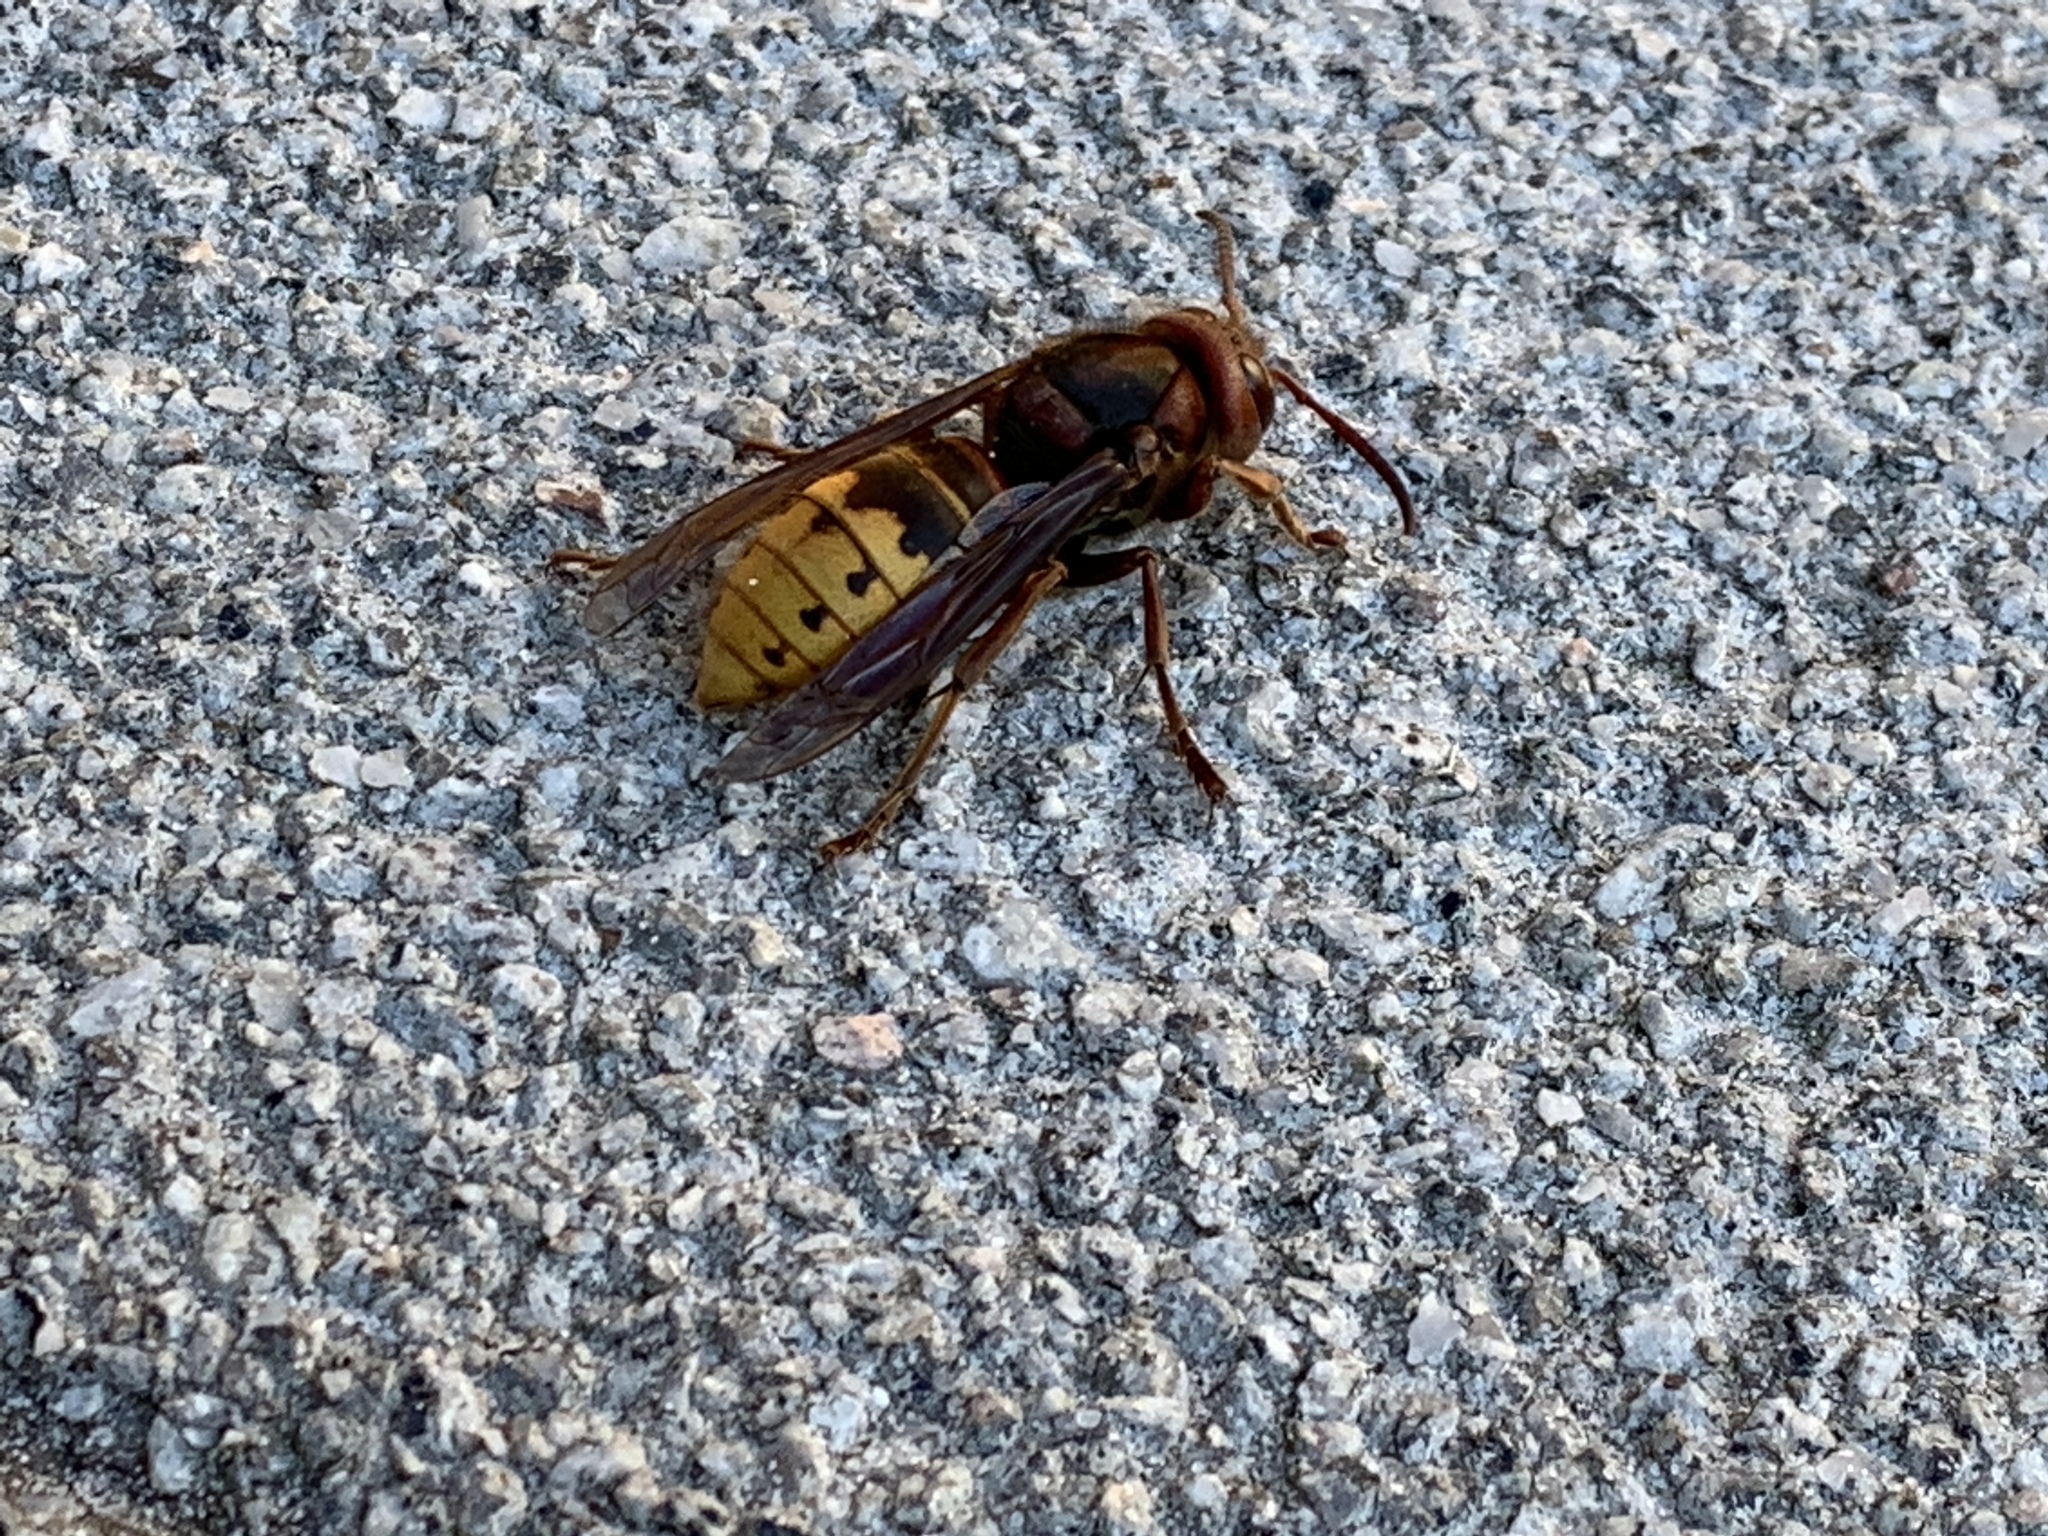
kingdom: Animalia
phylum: Arthropoda
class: Insecta
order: Hymenoptera
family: Vespidae
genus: Vespa
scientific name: Vespa crabro
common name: Hornet
